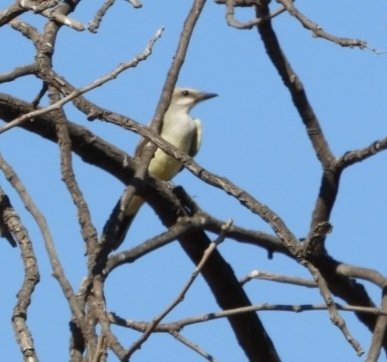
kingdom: Animalia
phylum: Chordata
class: Aves
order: Passeriformes
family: Tyrannidae
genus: Tyrannus
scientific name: Tyrannus verticalis
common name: Western kingbird
